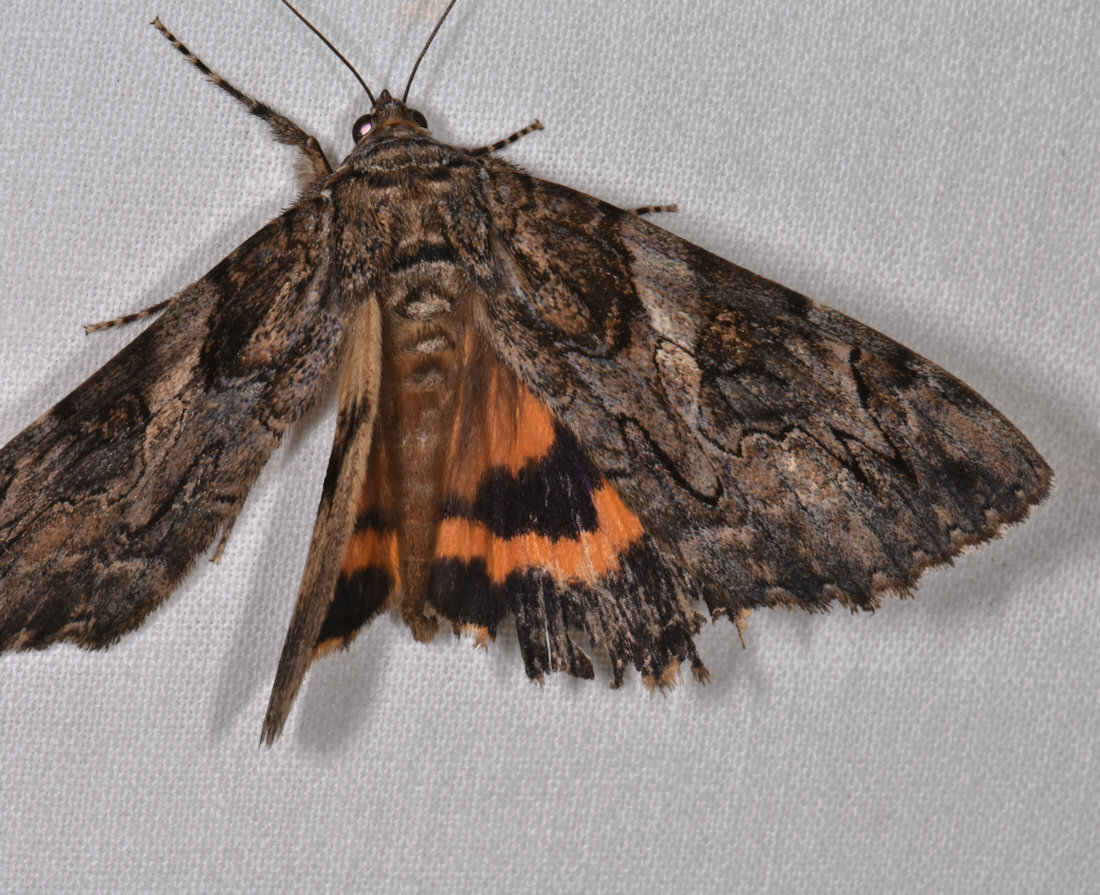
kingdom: Animalia
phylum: Arthropoda
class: Insecta
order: Lepidoptera
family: Erebidae
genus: Catocala
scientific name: Catocala piatrix
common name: The penitent underwing
